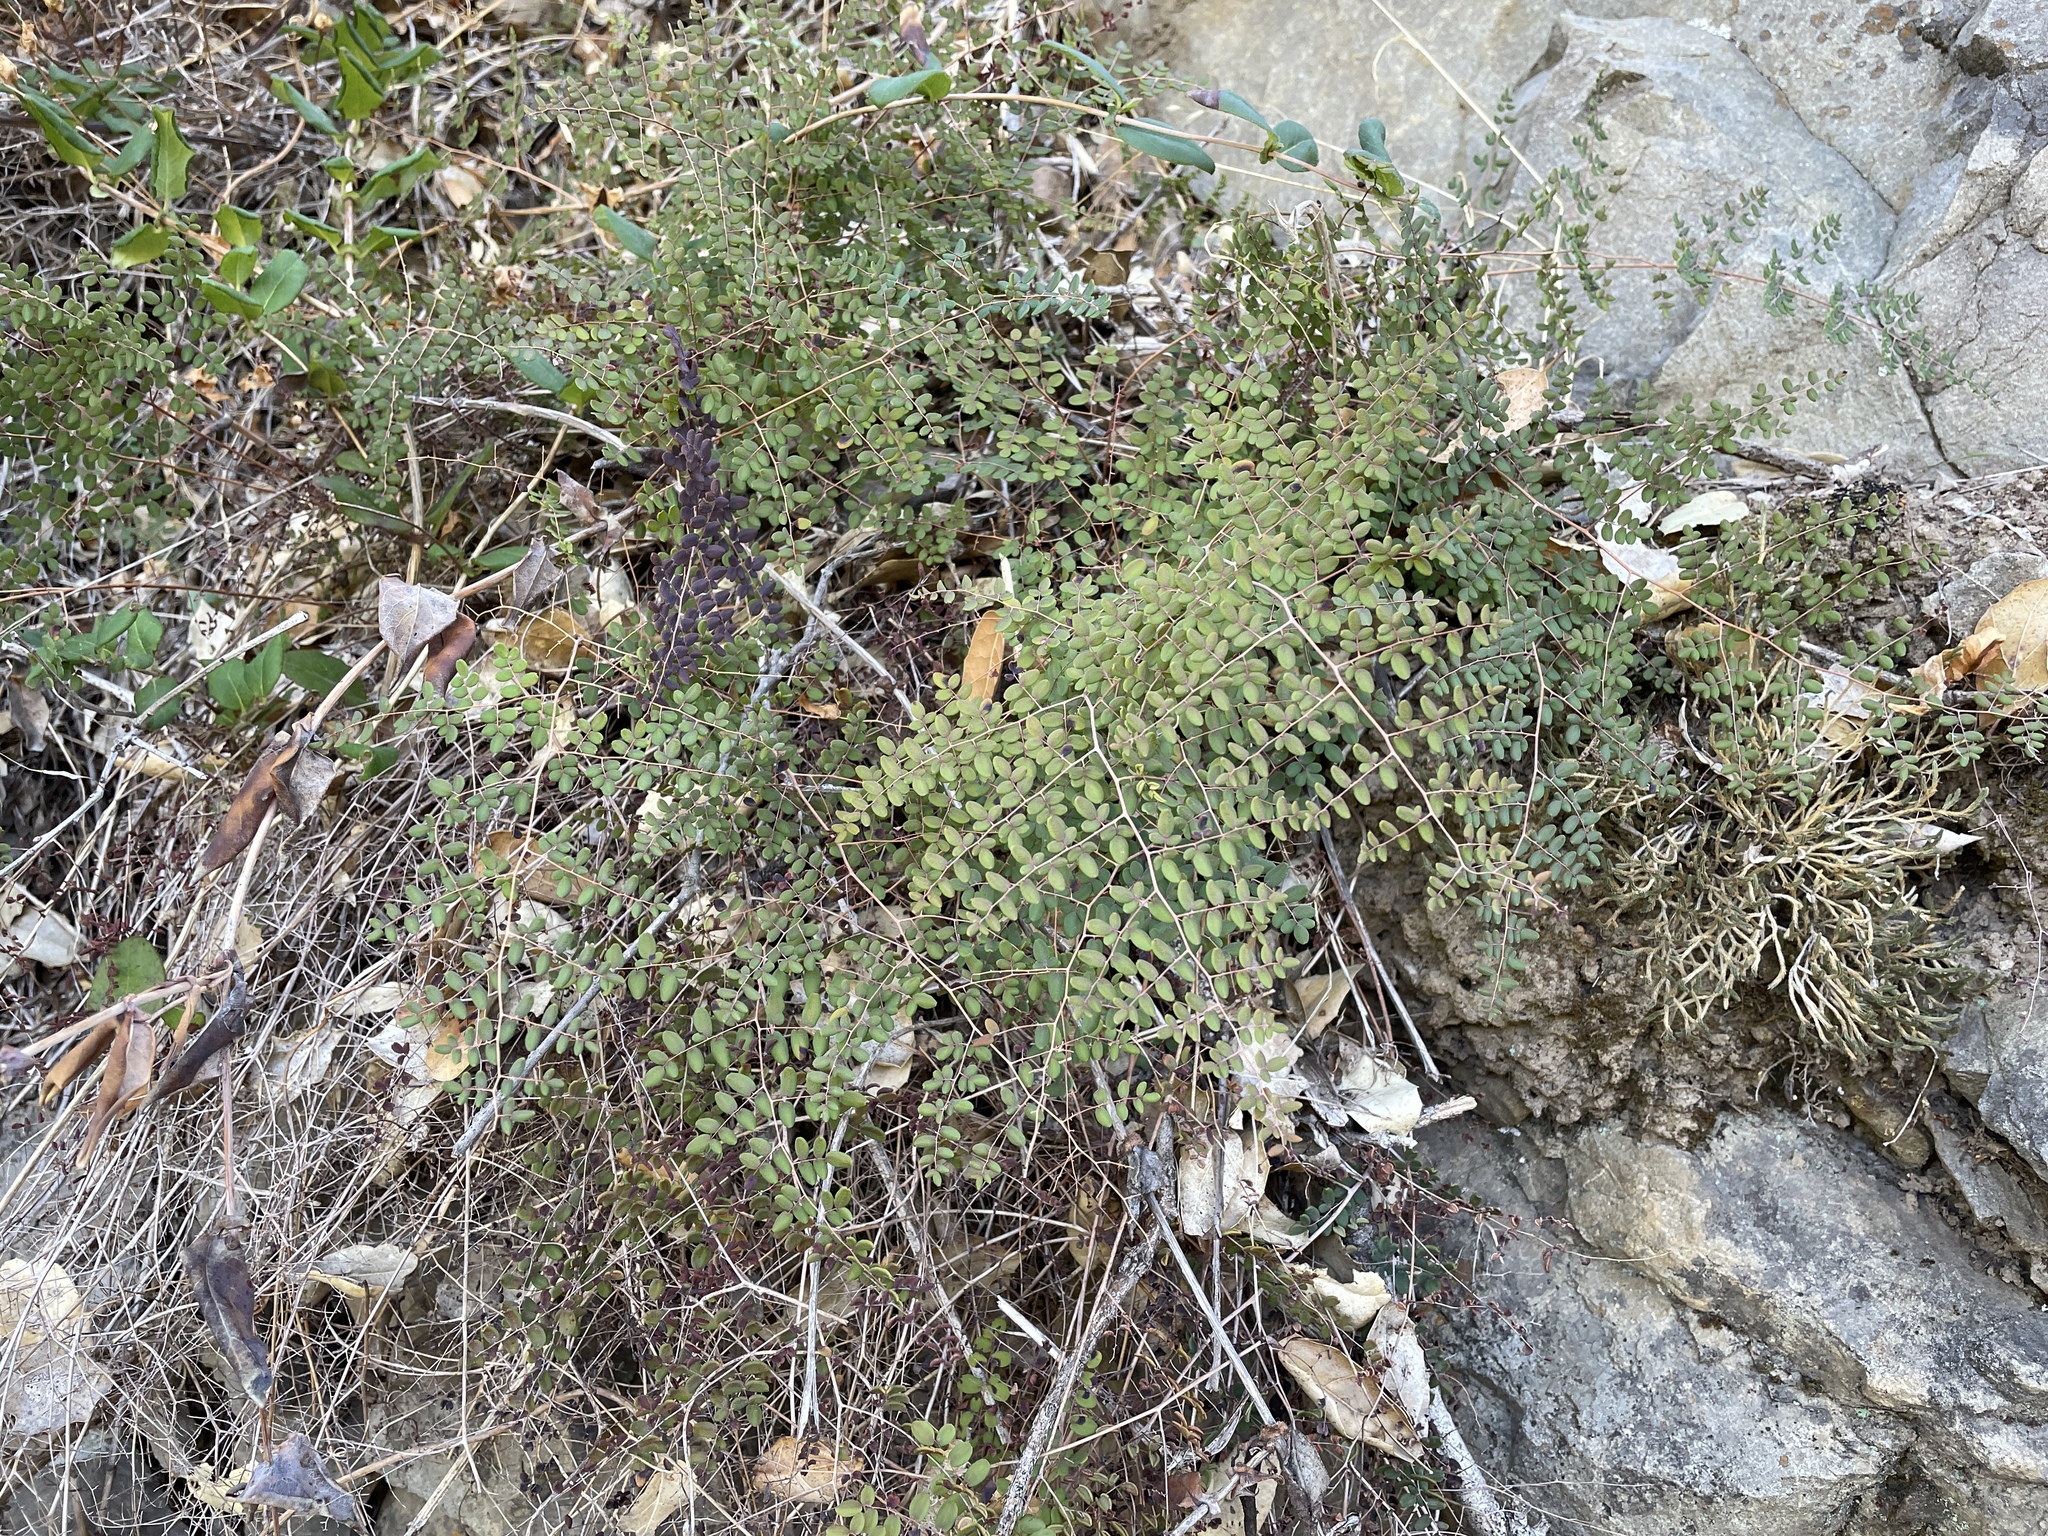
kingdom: Plantae
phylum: Tracheophyta
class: Polypodiopsida
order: Polypodiales
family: Pteridaceae
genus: Pellaea
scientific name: Pellaea andromedifolia
